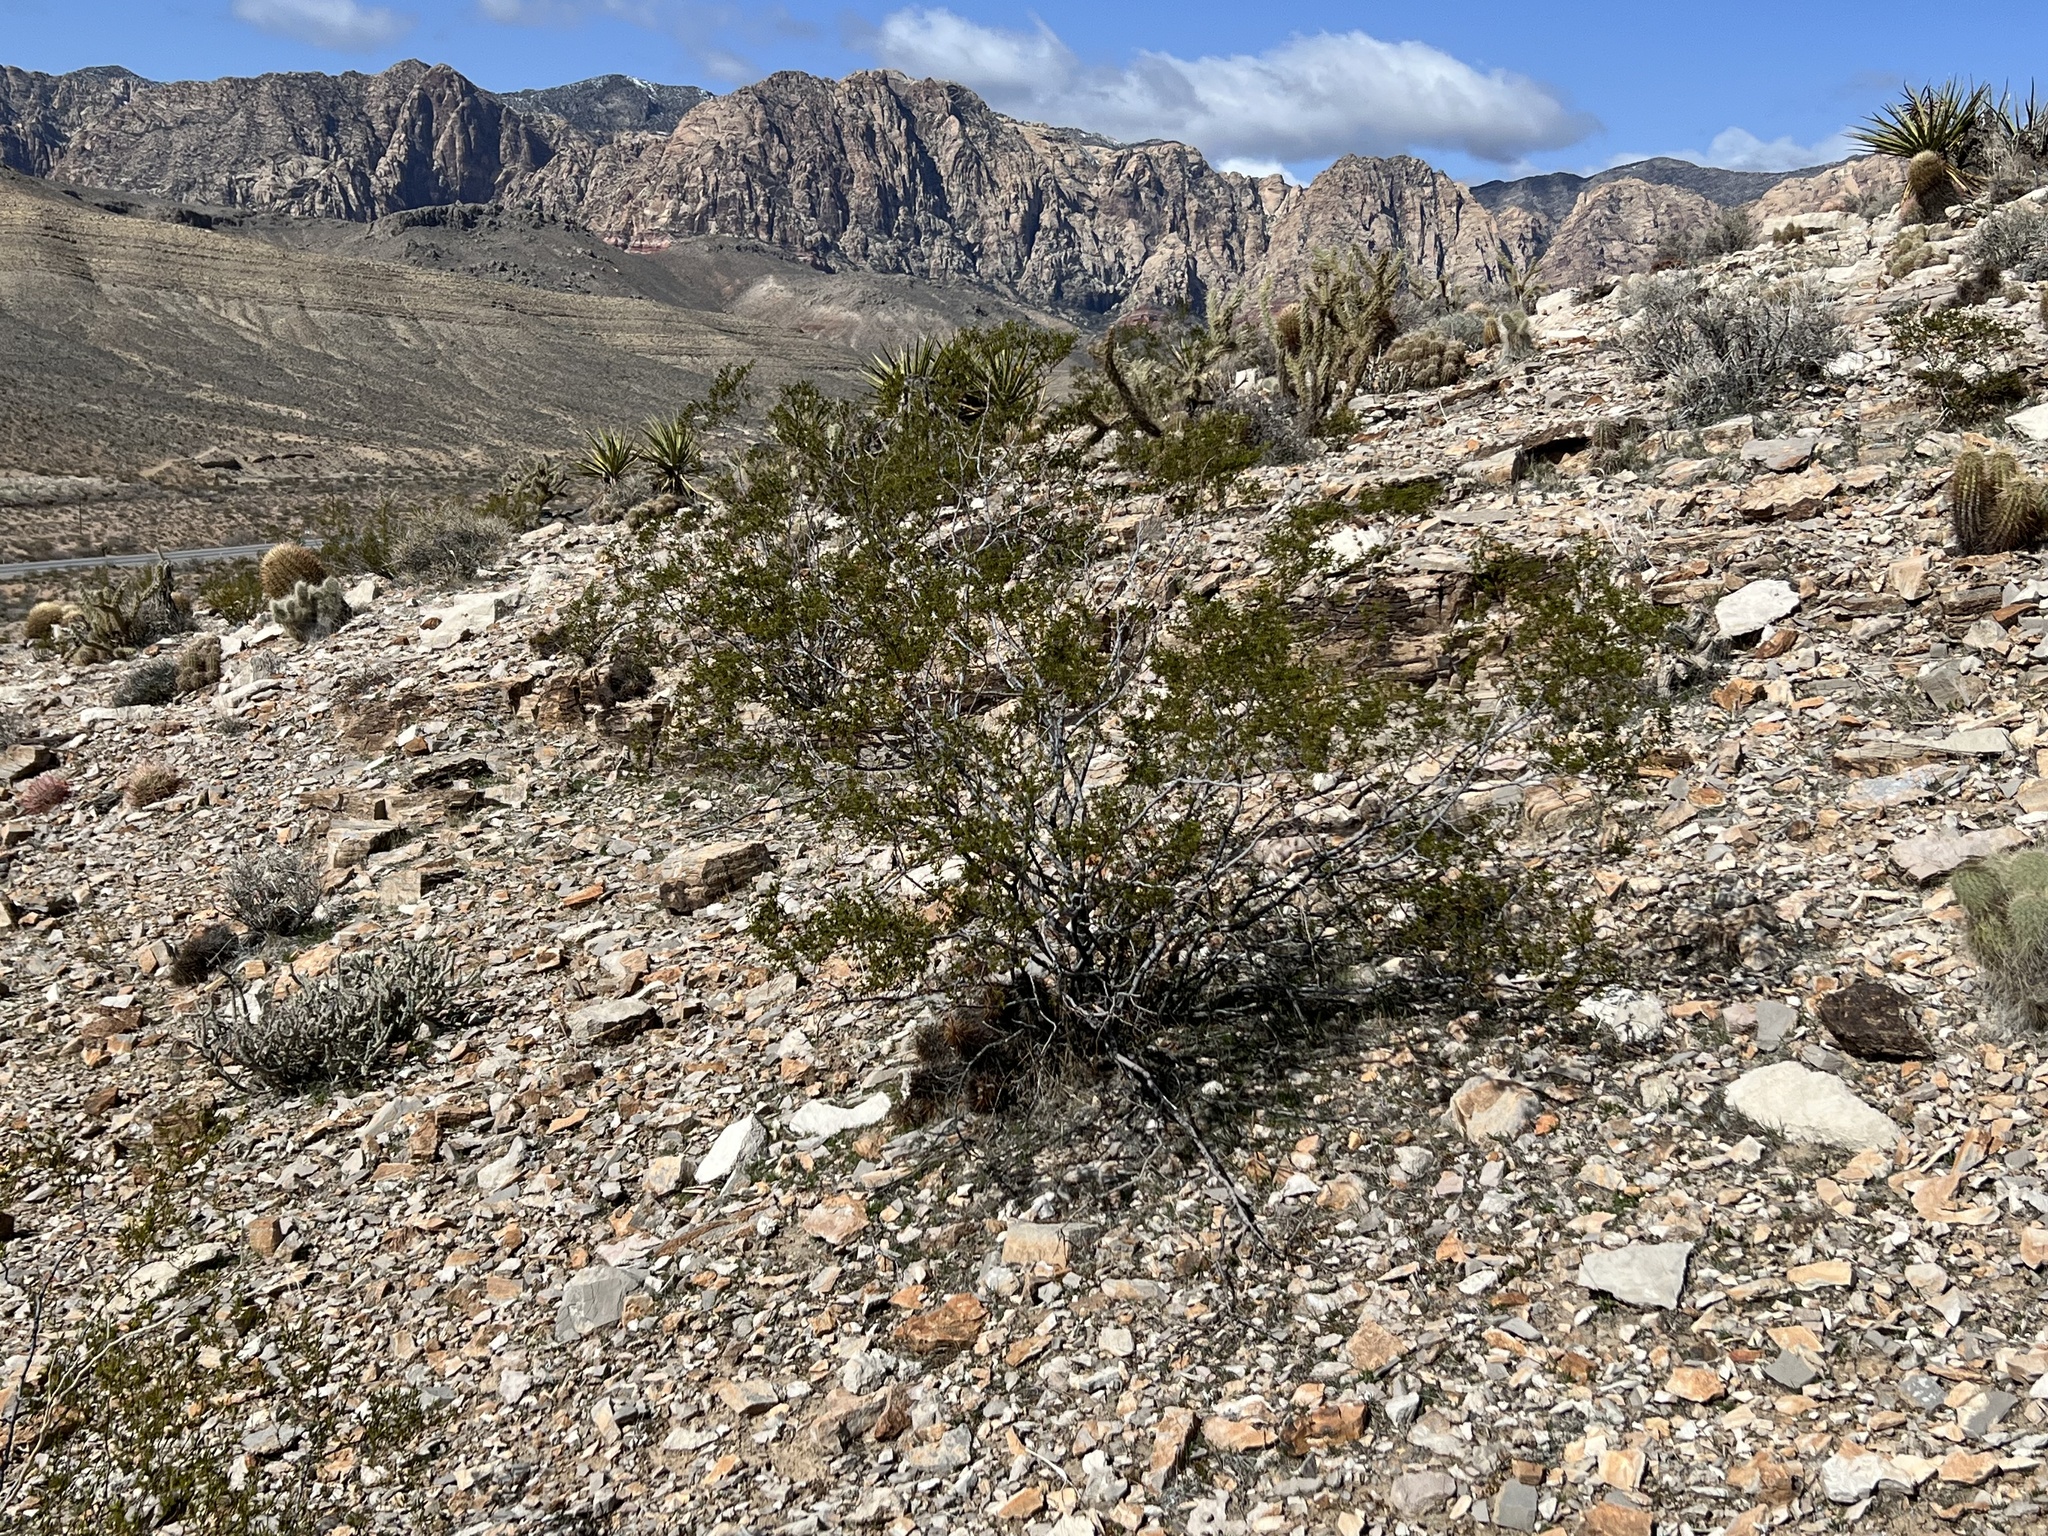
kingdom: Plantae
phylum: Tracheophyta
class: Magnoliopsida
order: Zygophyllales
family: Zygophyllaceae
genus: Larrea
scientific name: Larrea tridentata
